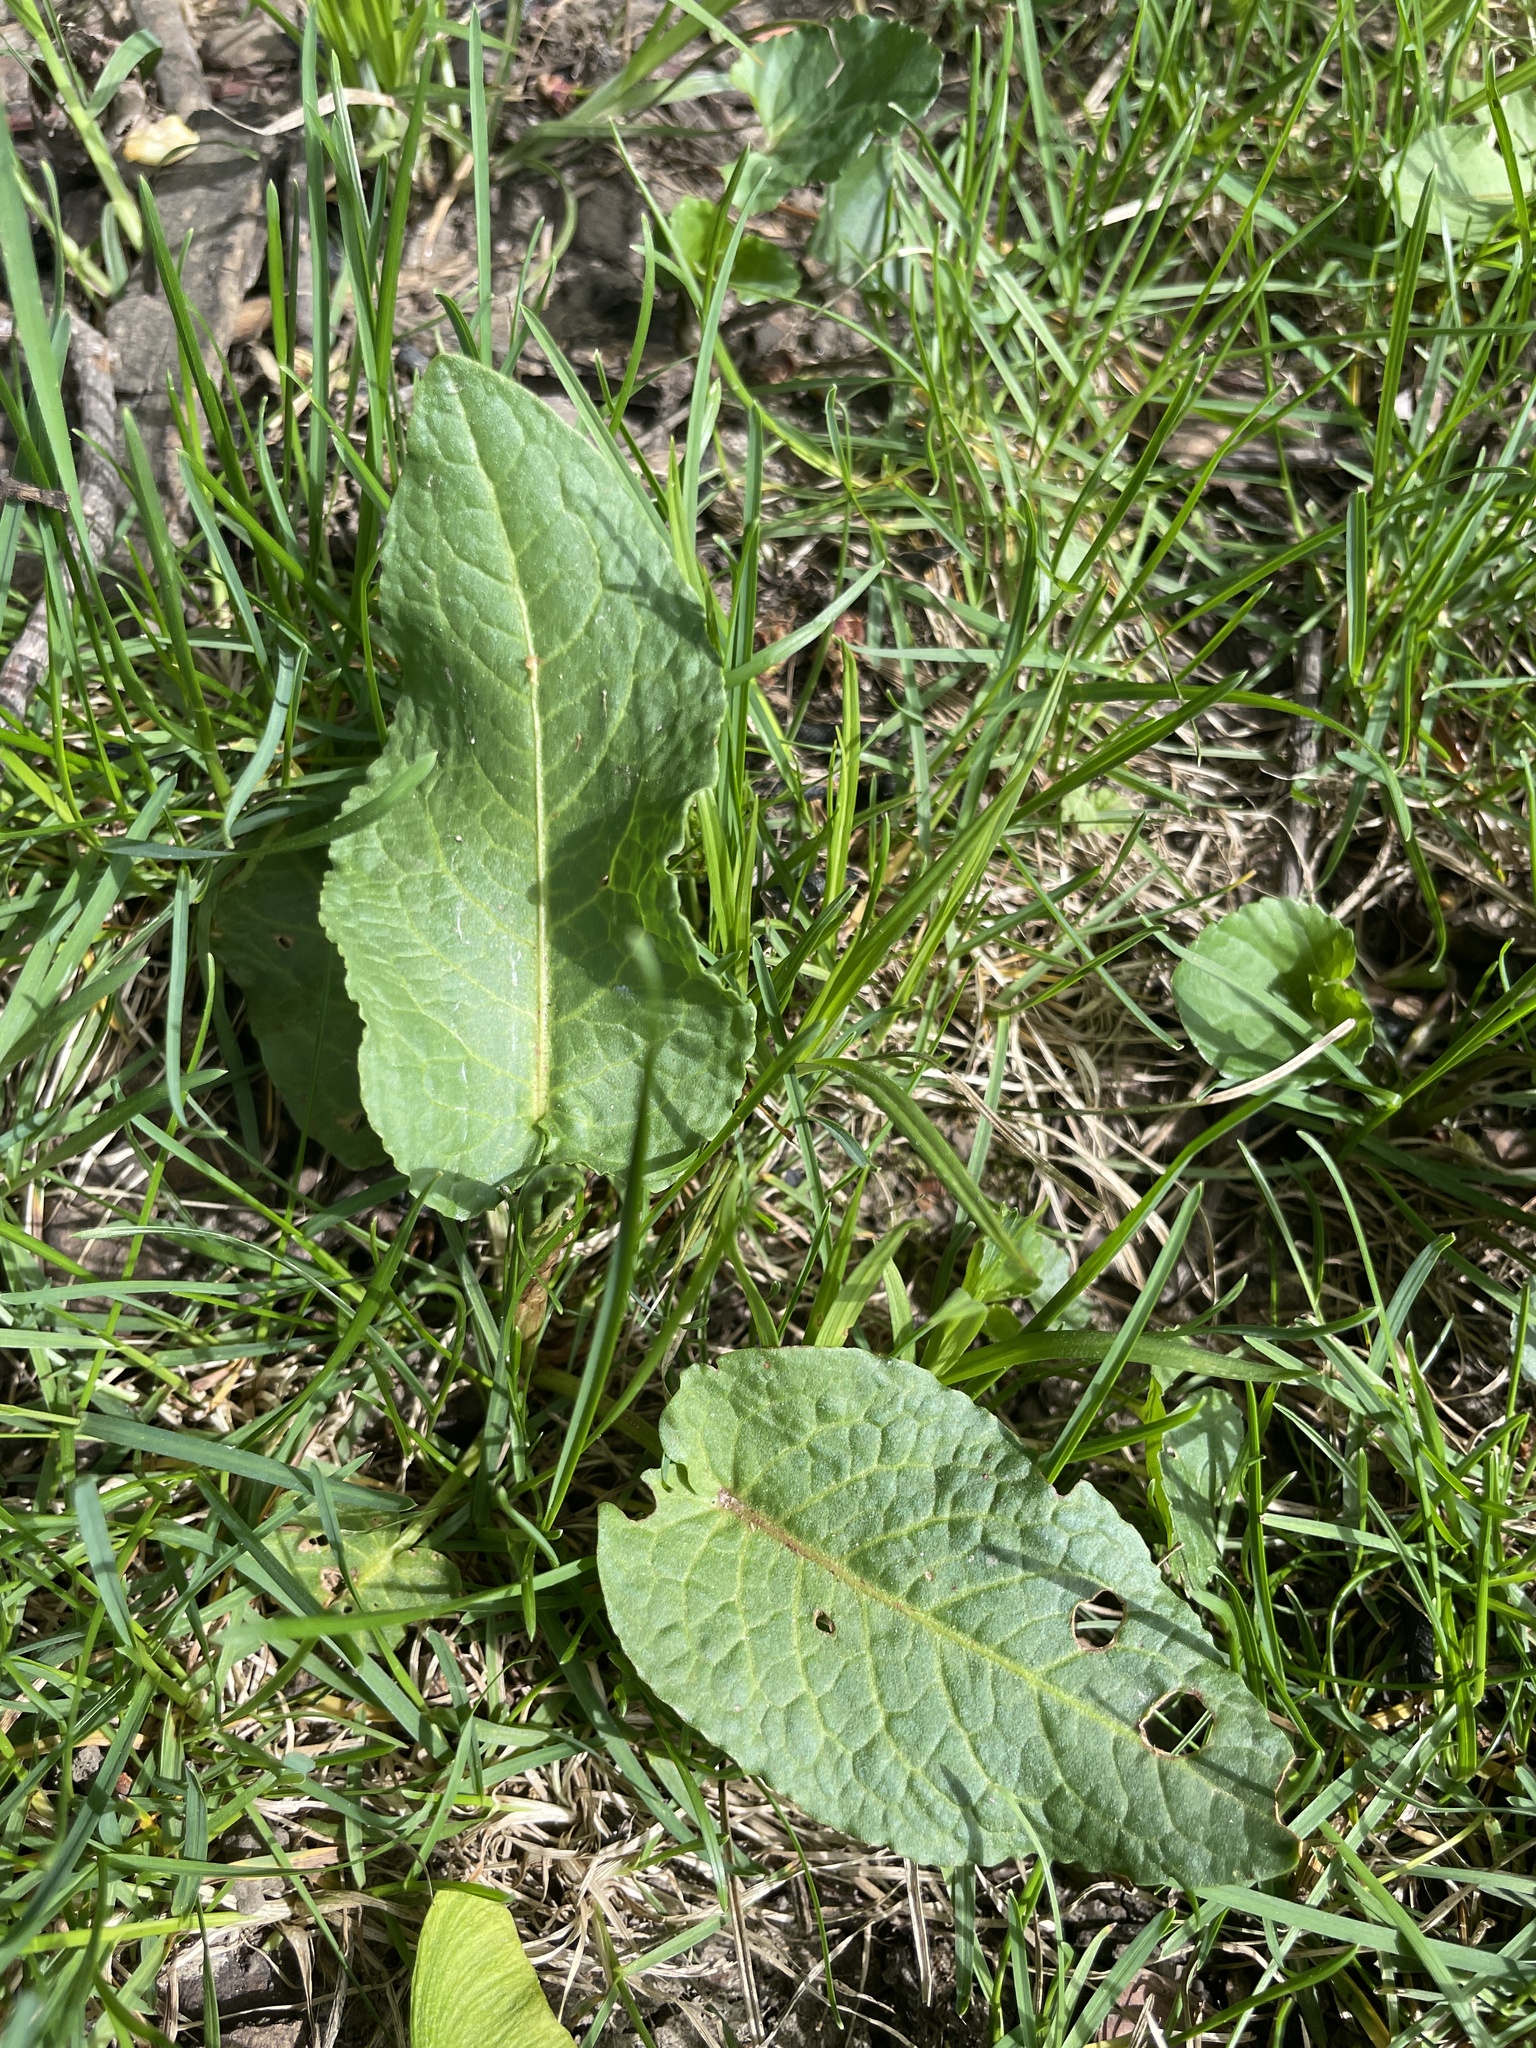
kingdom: Plantae
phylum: Tracheophyta
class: Magnoliopsida
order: Caryophyllales
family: Polygonaceae
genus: Rumex
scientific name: Rumex obtusifolius
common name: Bitter dock
